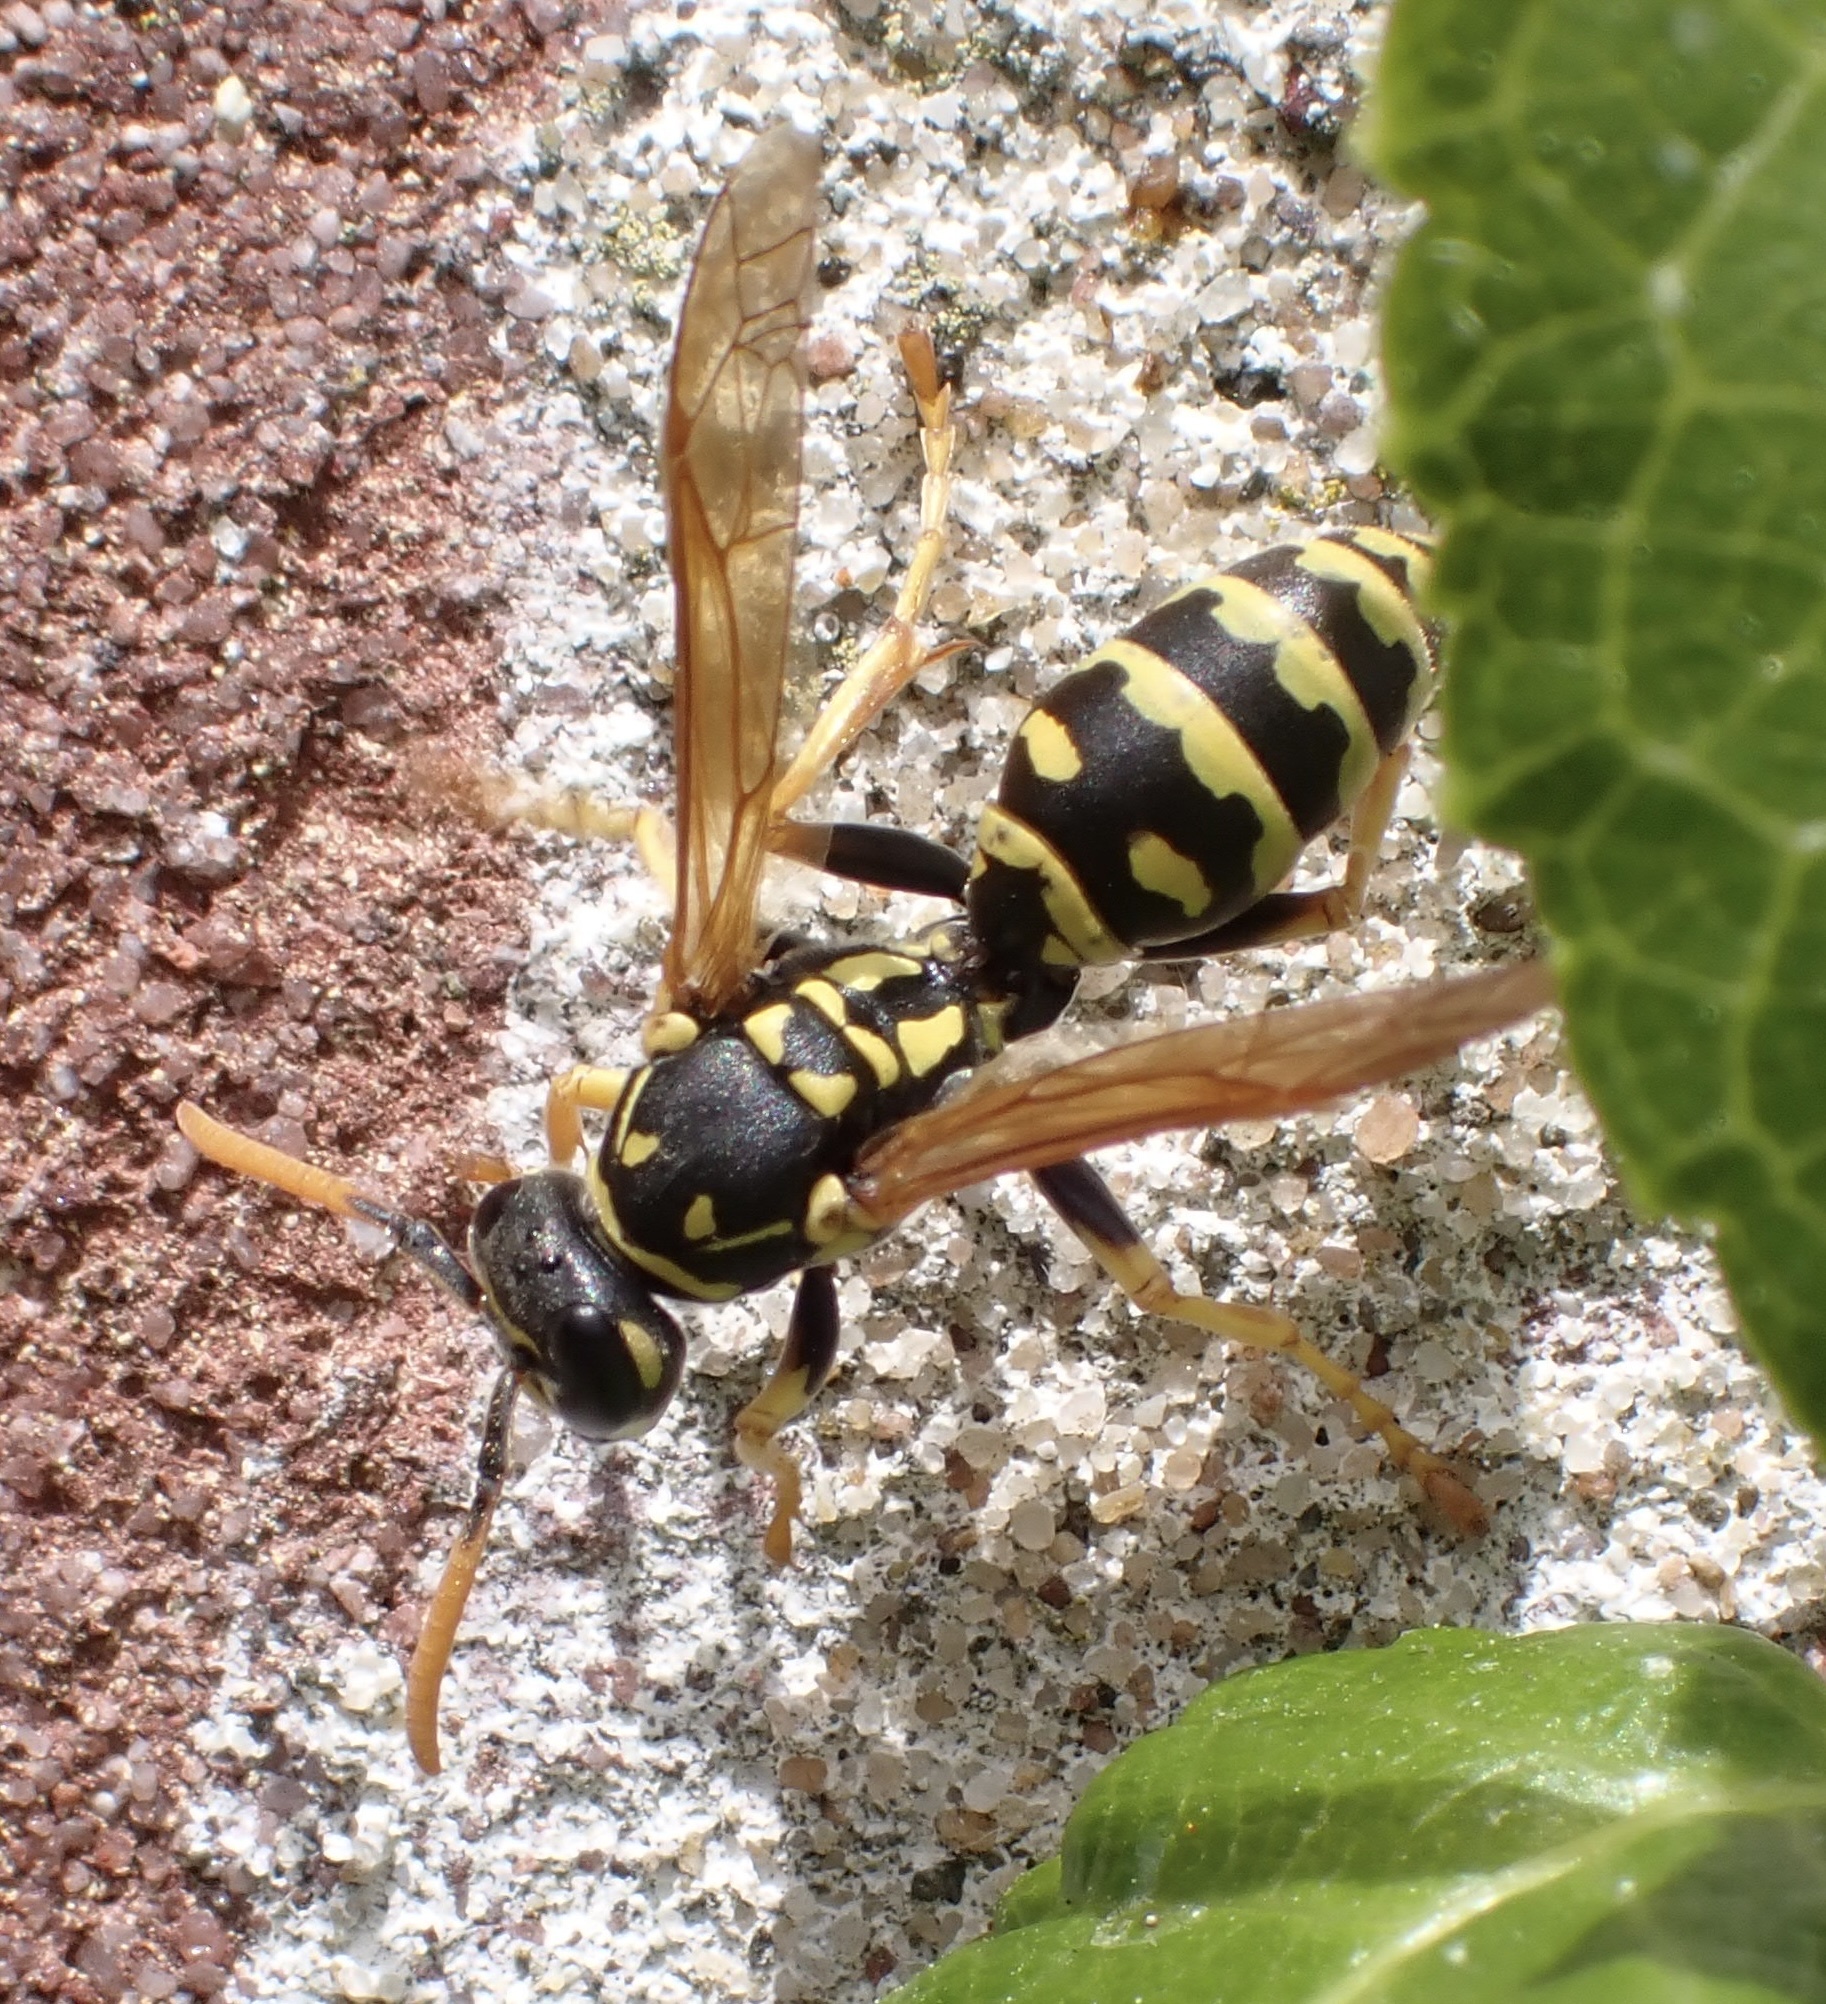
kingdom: Animalia
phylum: Arthropoda
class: Insecta
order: Hymenoptera
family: Eumenidae
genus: Polistes
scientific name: Polistes dominula
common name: Paper wasp
